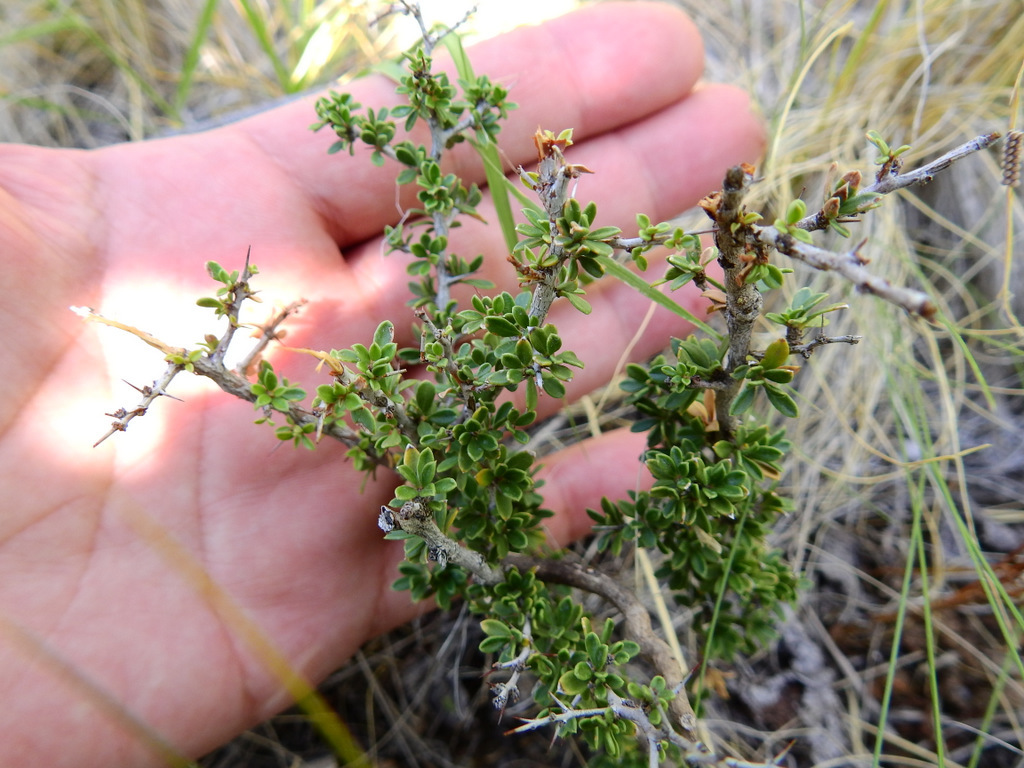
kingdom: Plantae
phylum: Tracheophyta
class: Magnoliopsida
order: Rosales
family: Rhamnaceae
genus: Condalia
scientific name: Condalia microphylla
